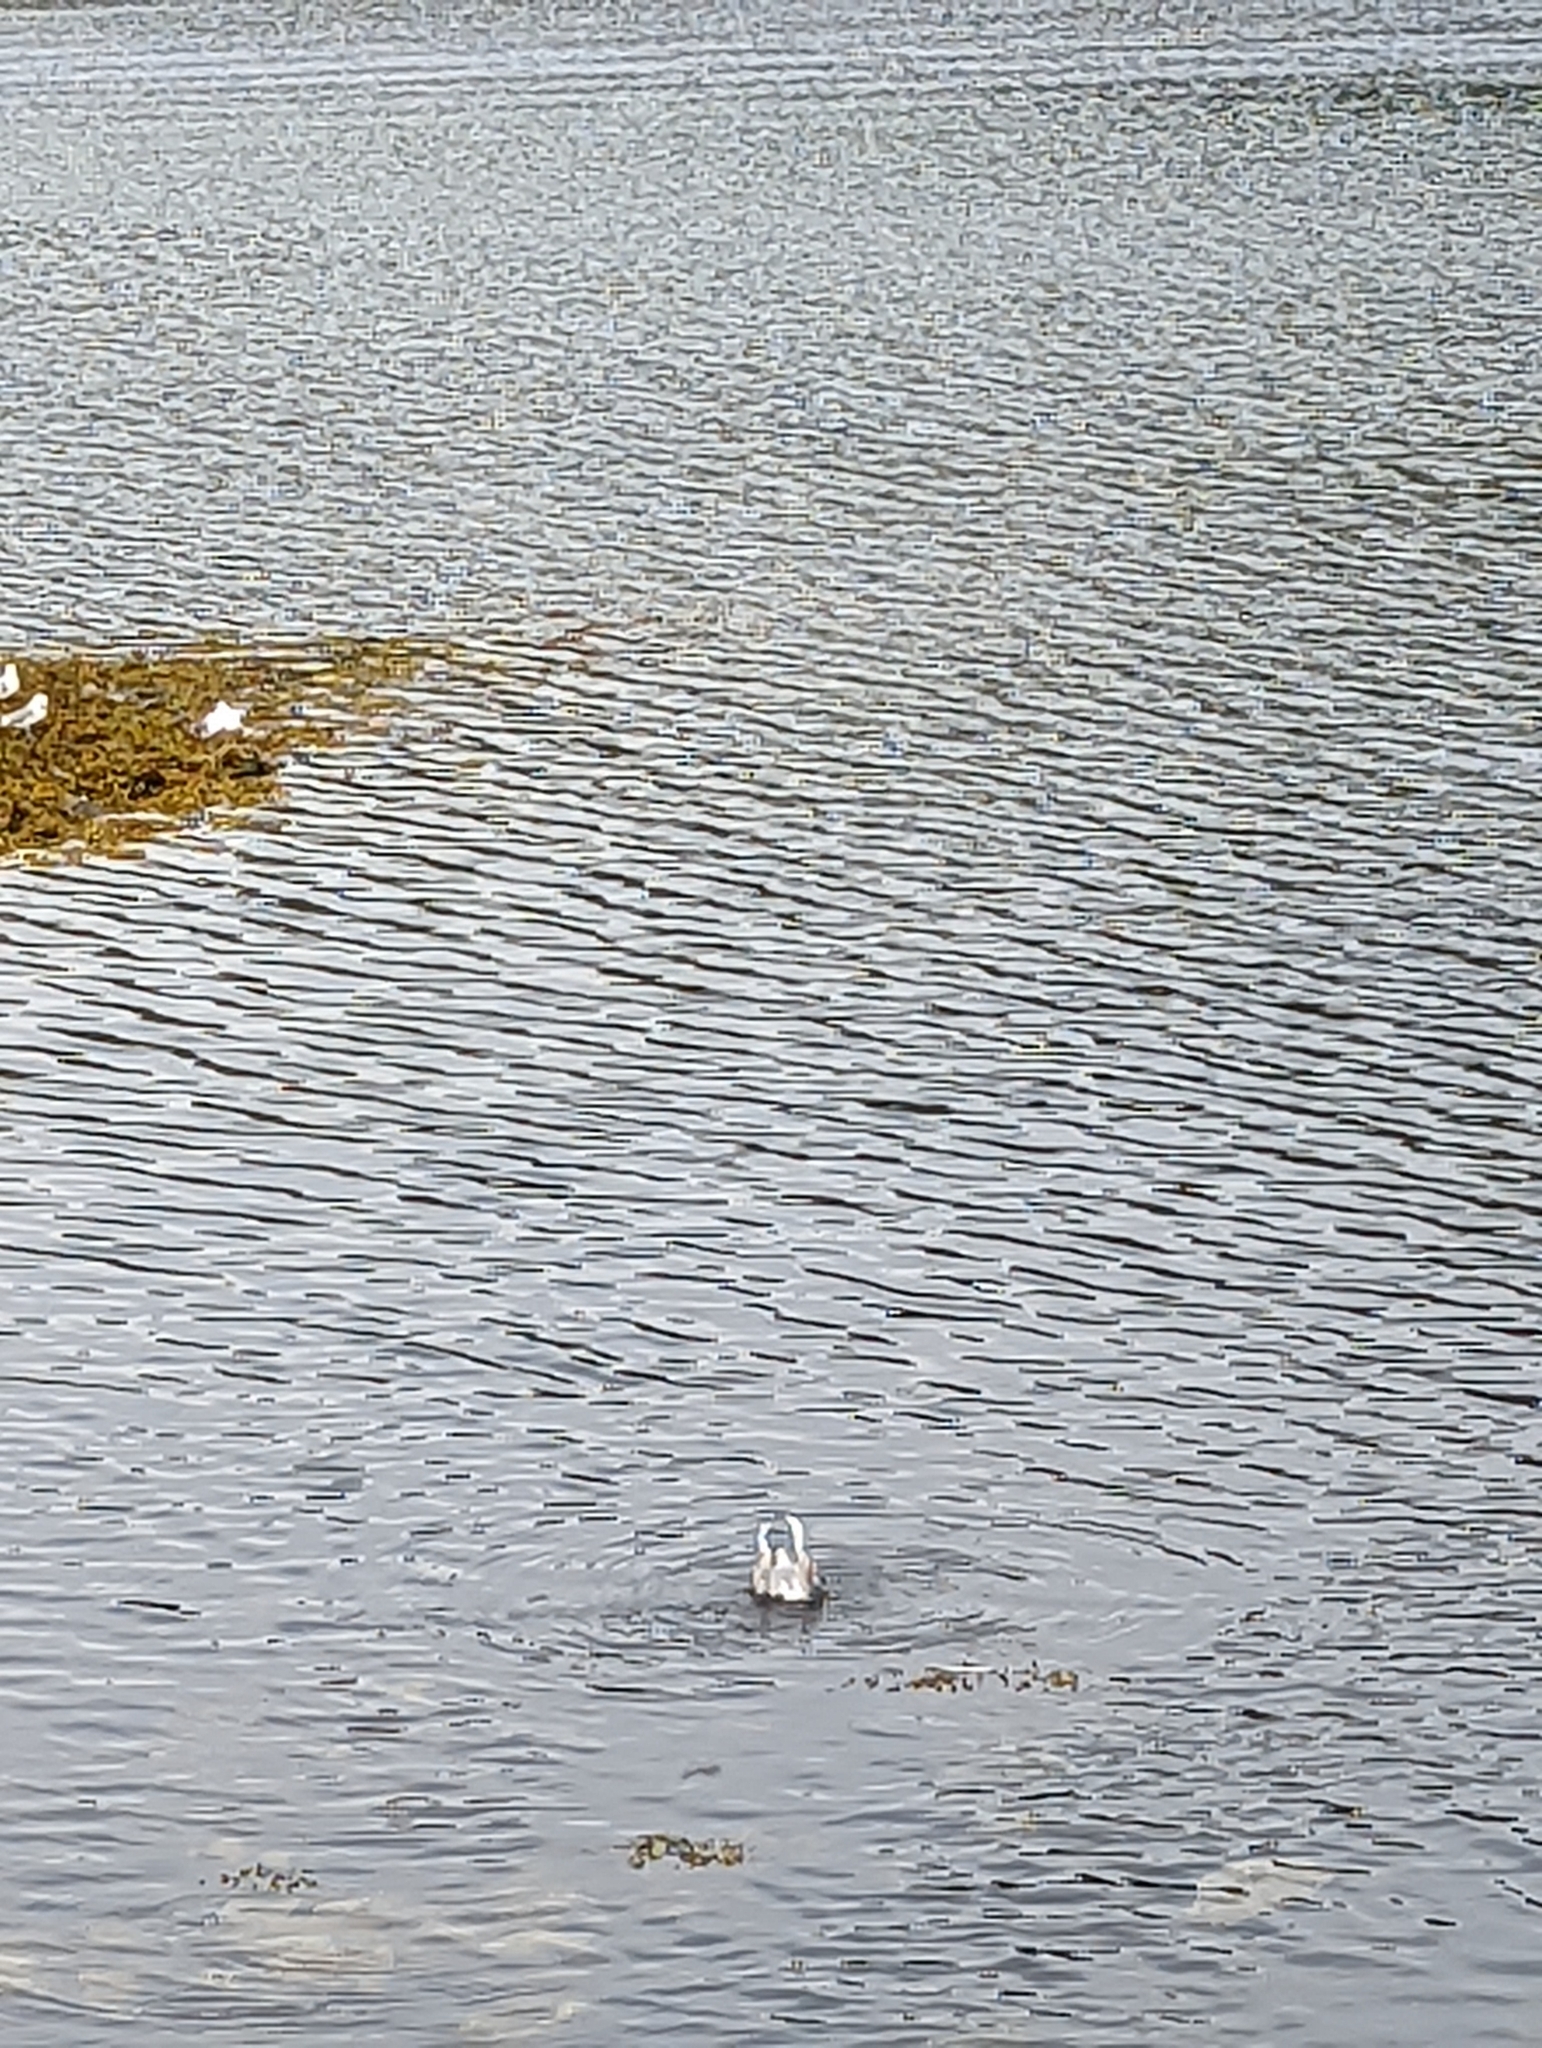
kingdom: Animalia
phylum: Chordata
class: Aves
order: Charadriiformes
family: Laridae
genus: Chroicocephalus
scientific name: Chroicocephalus philadelphia
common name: Bonaparte's gull
